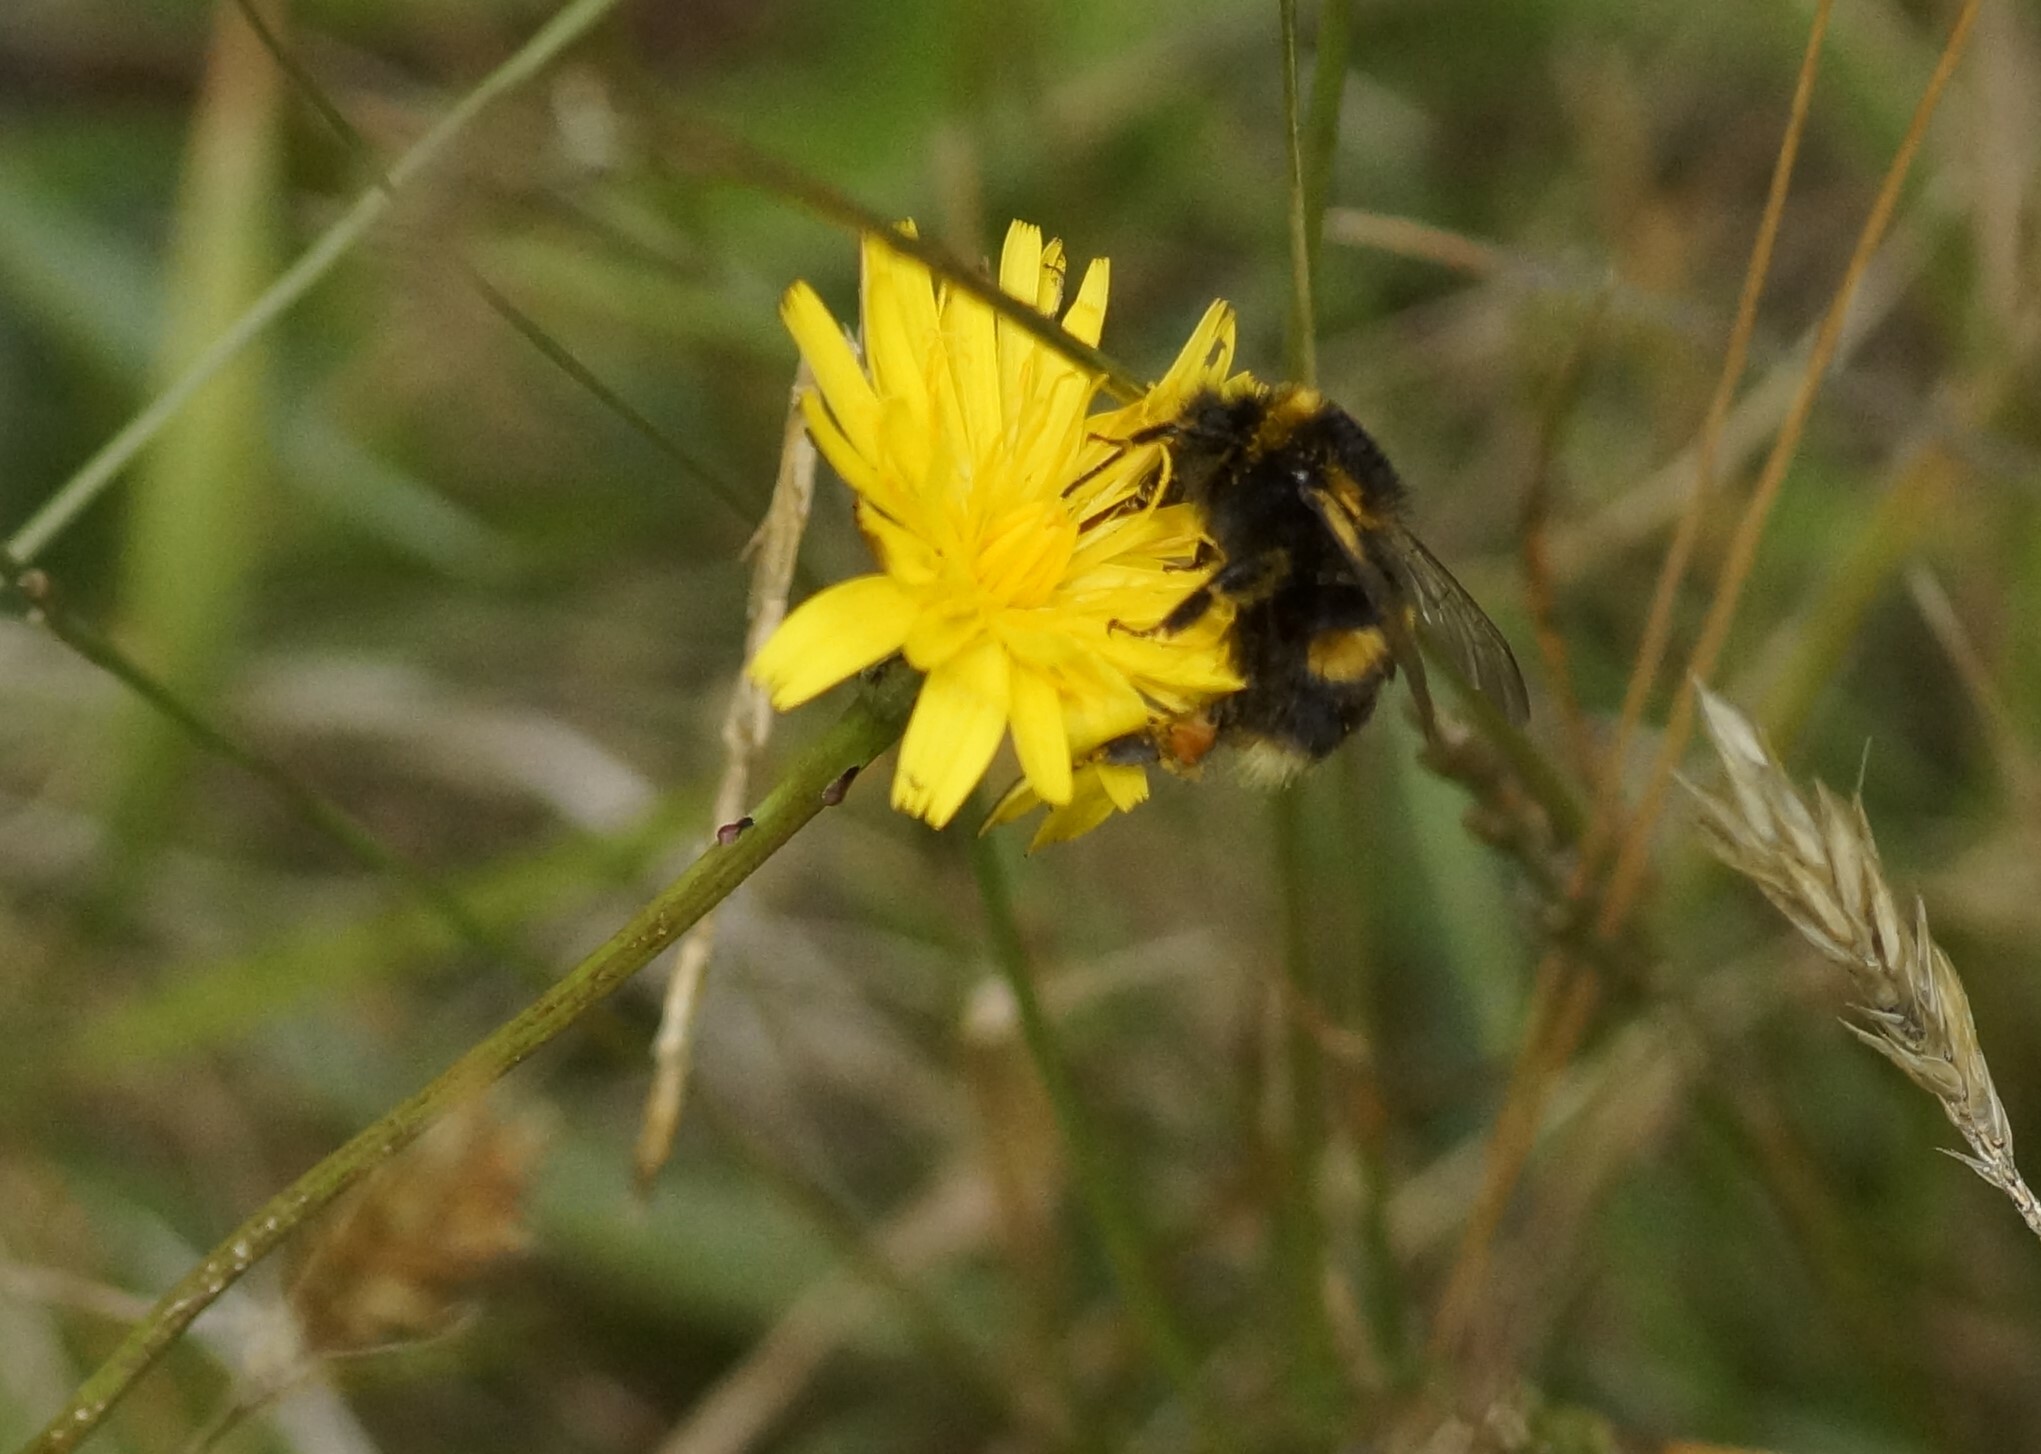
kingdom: Animalia
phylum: Arthropoda
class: Insecta
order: Hymenoptera
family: Apidae
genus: Bombus
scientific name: Bombus terrestris
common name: Buff-tailed bumblebee
